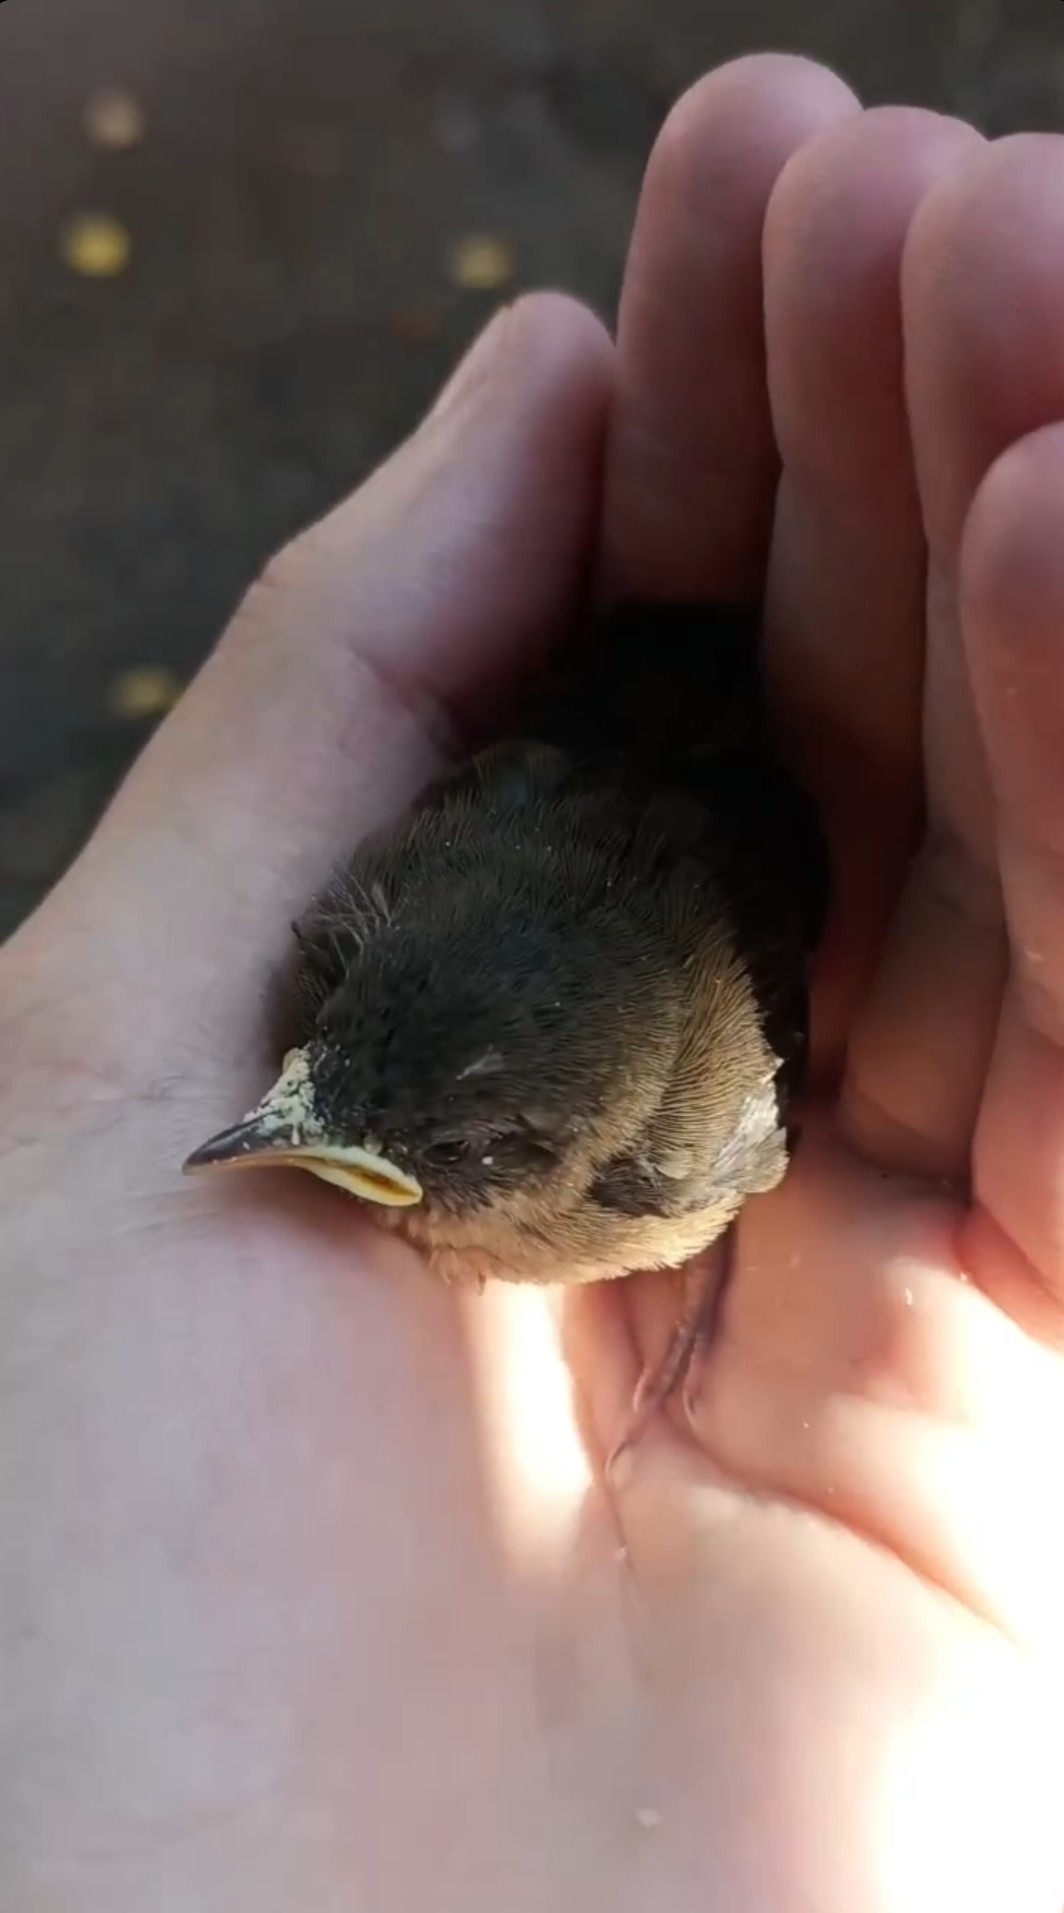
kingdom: Animalia
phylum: Chordata
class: Aves
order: Passeriformes
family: Troglodytidae
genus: Troglodytes
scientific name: Troglodytes aedon
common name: House wren
